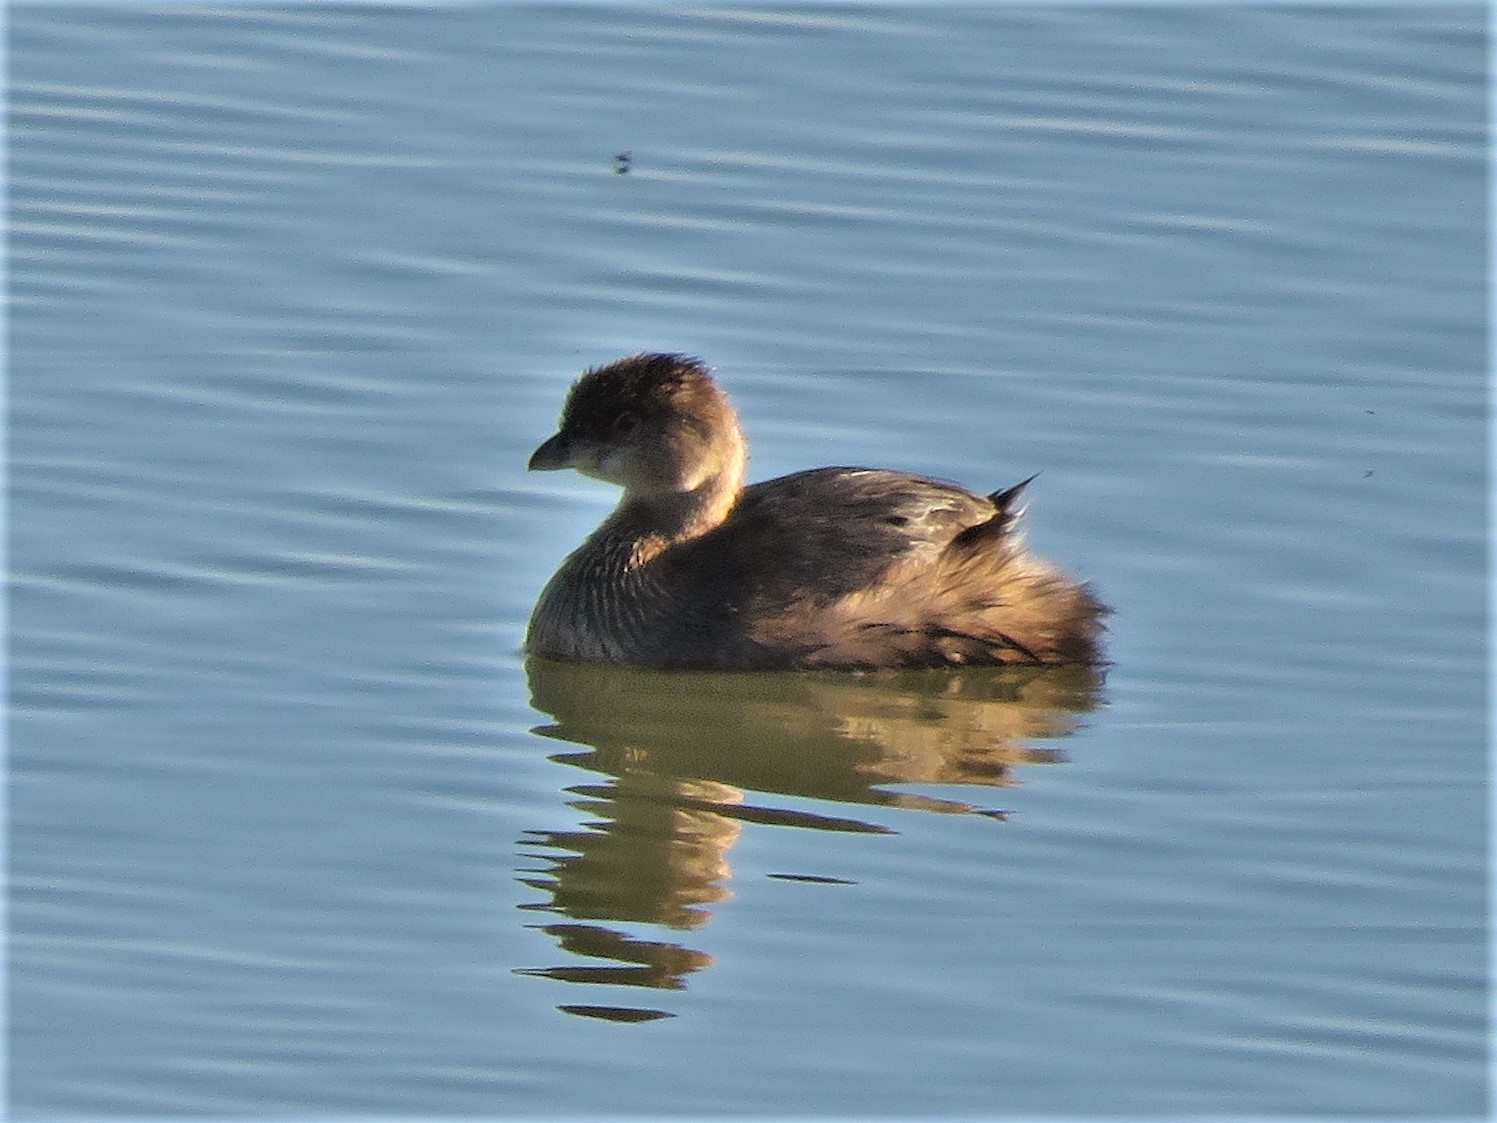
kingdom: Animalia
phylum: Chordata
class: Aves
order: Podicipediformes
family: Podicipedidae
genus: Podilymbus
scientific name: Podilymbus podiceps
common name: Pied-billed grebe
